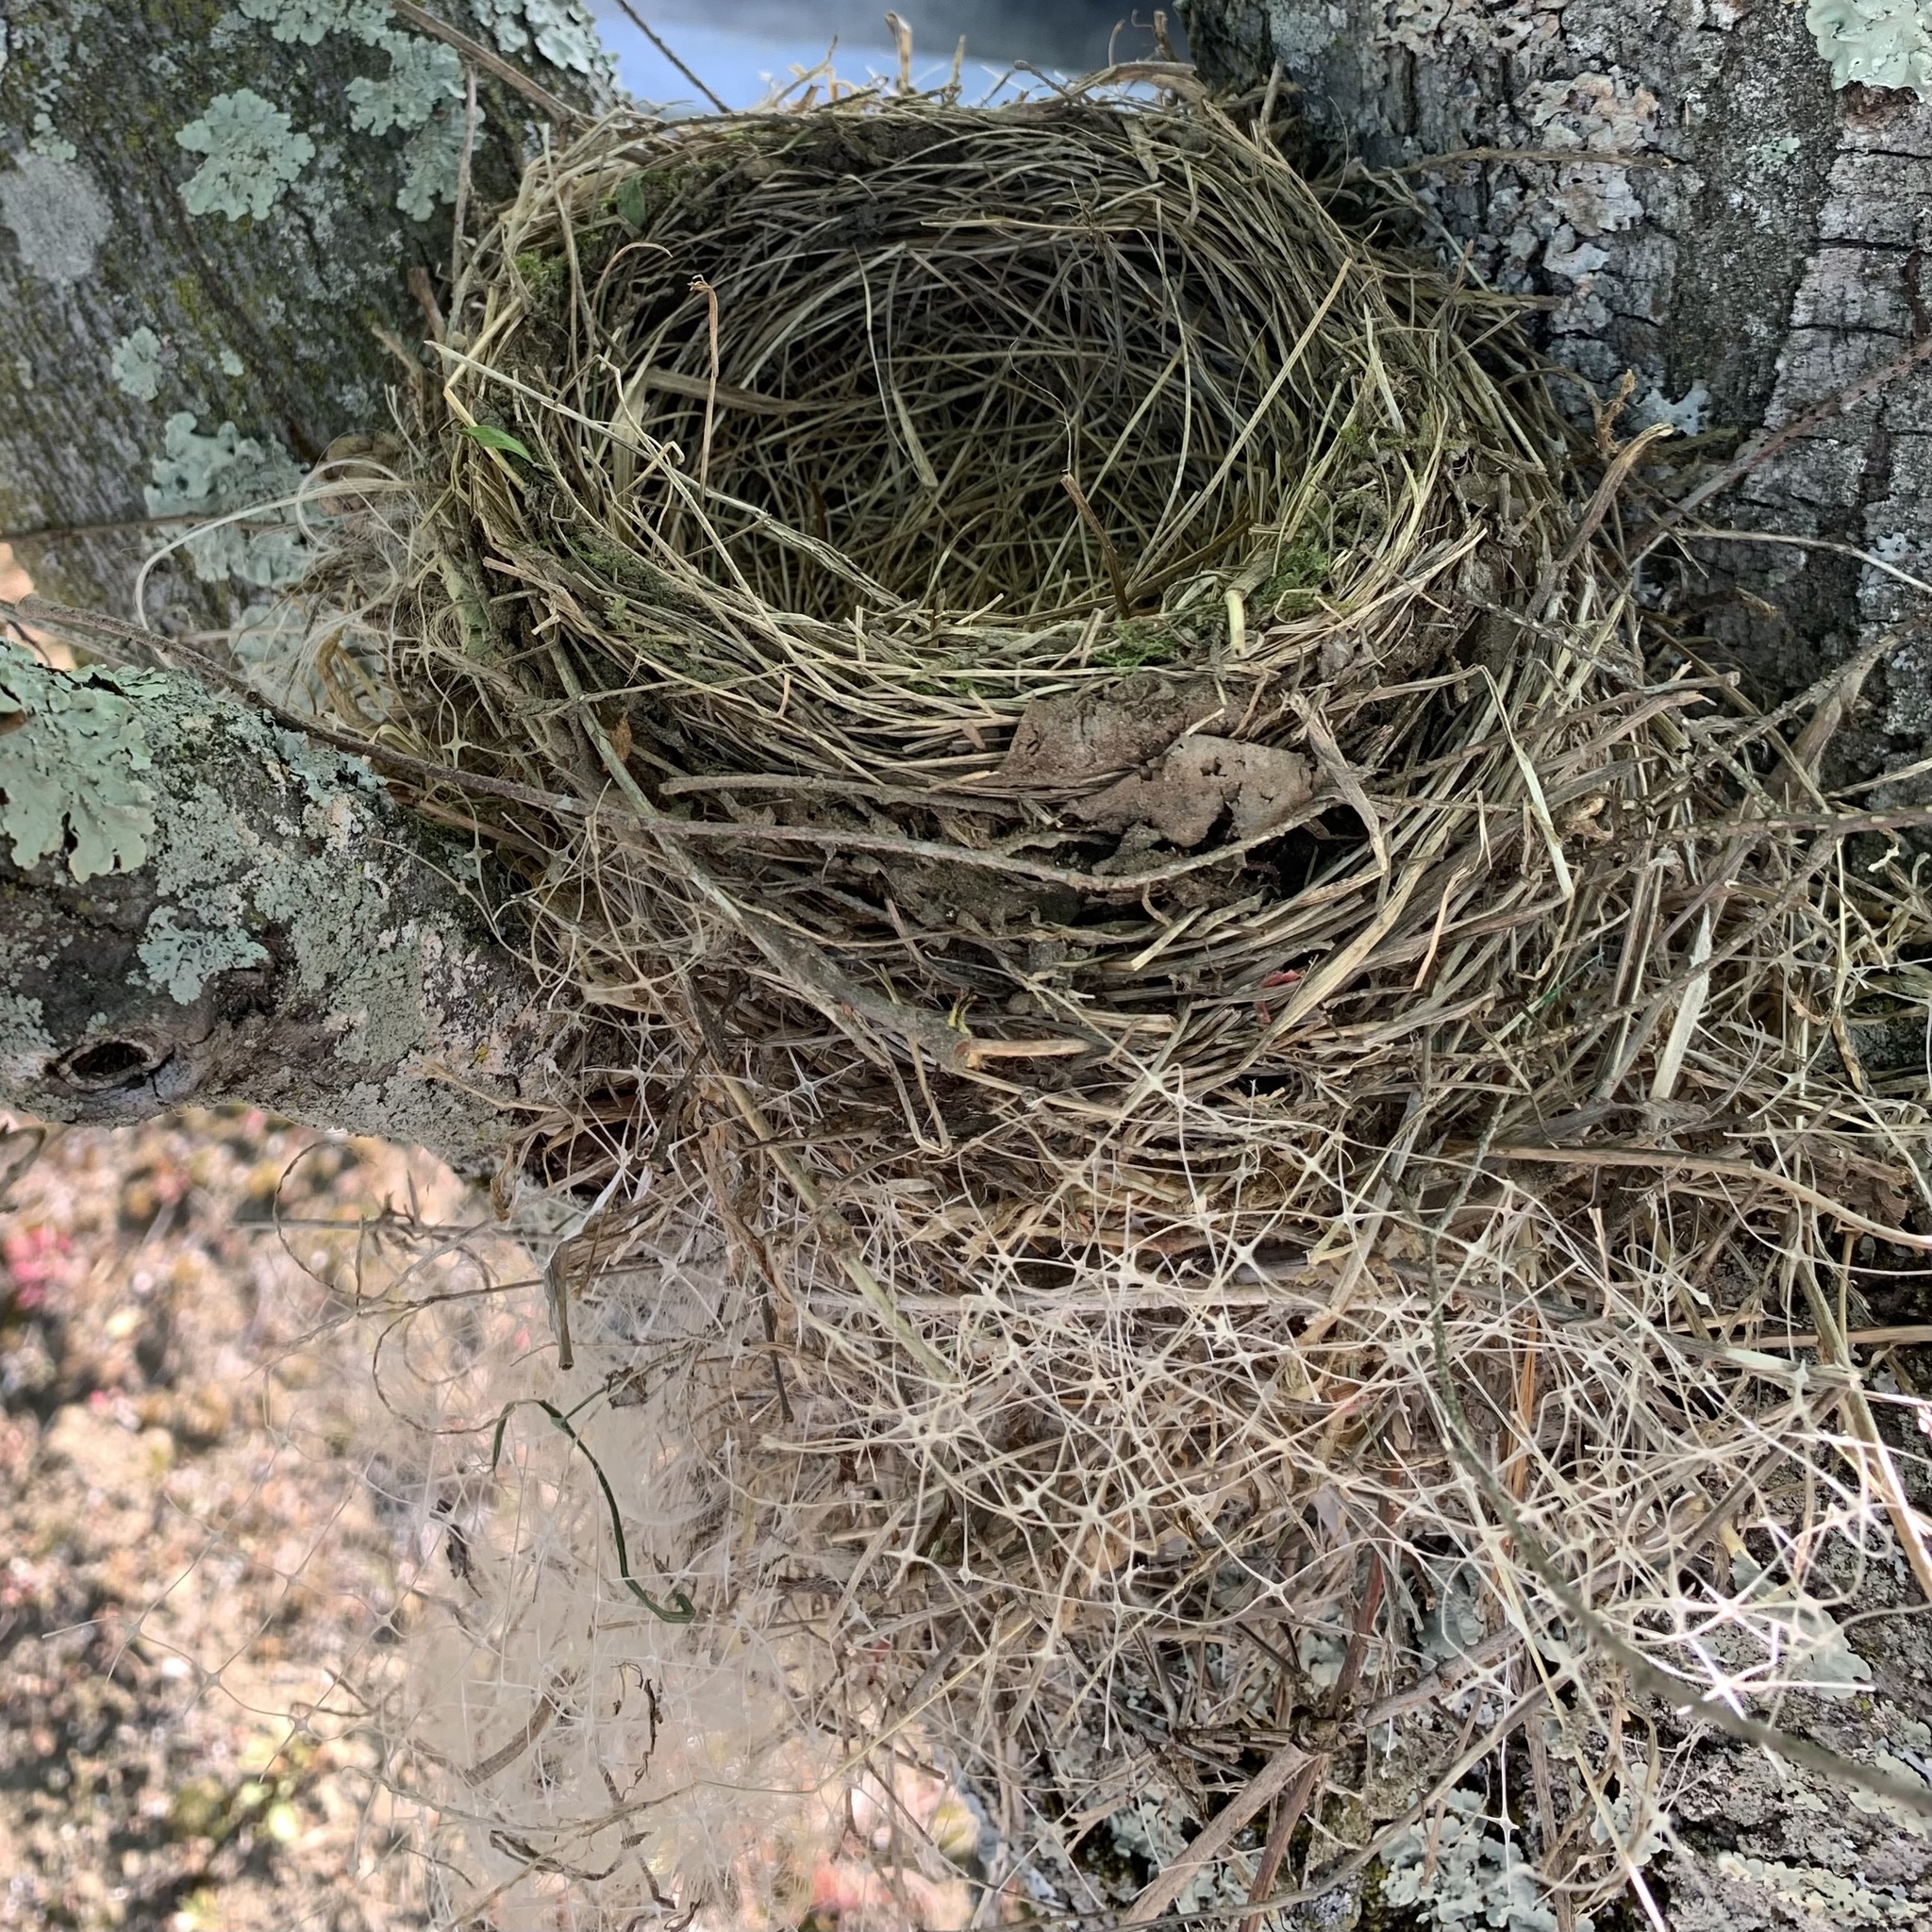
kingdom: Animalia
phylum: Chordata
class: Aves
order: Passeriformes
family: Turdidae
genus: Turdus
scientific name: Turdus migratorius
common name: American robin
